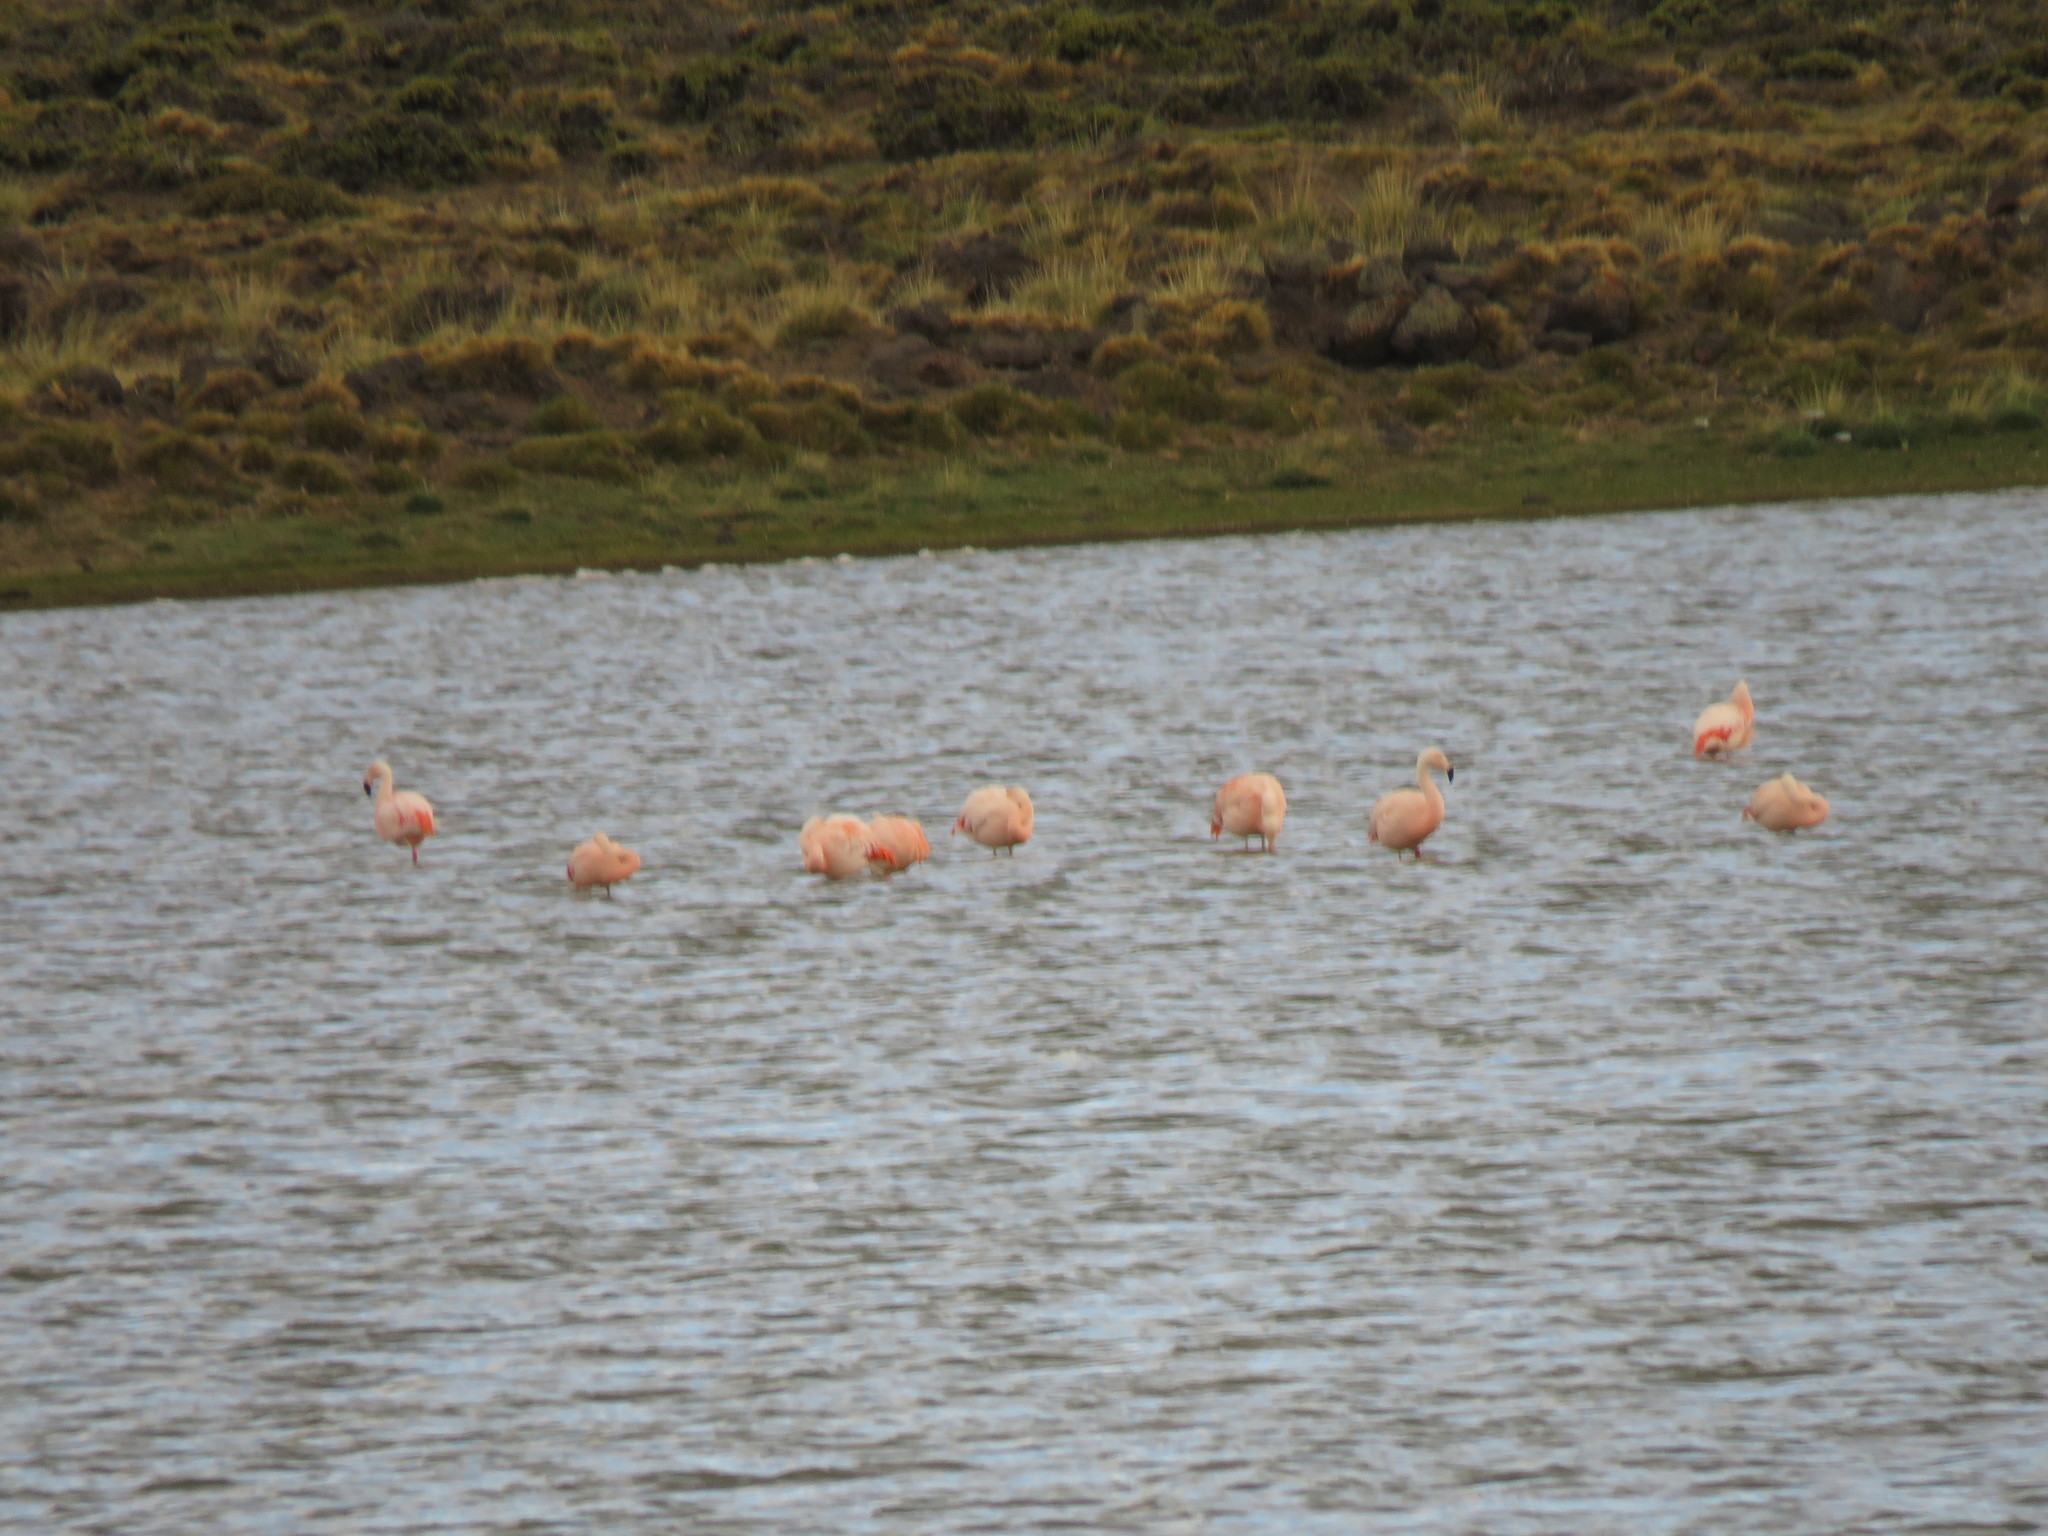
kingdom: Animalia
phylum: Chordata
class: Aves
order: Phoenicopteriformes
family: Phoenicopteridae
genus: Phoenicopterus
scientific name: Phoenicopterus chilensis
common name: Chilean flamingo
